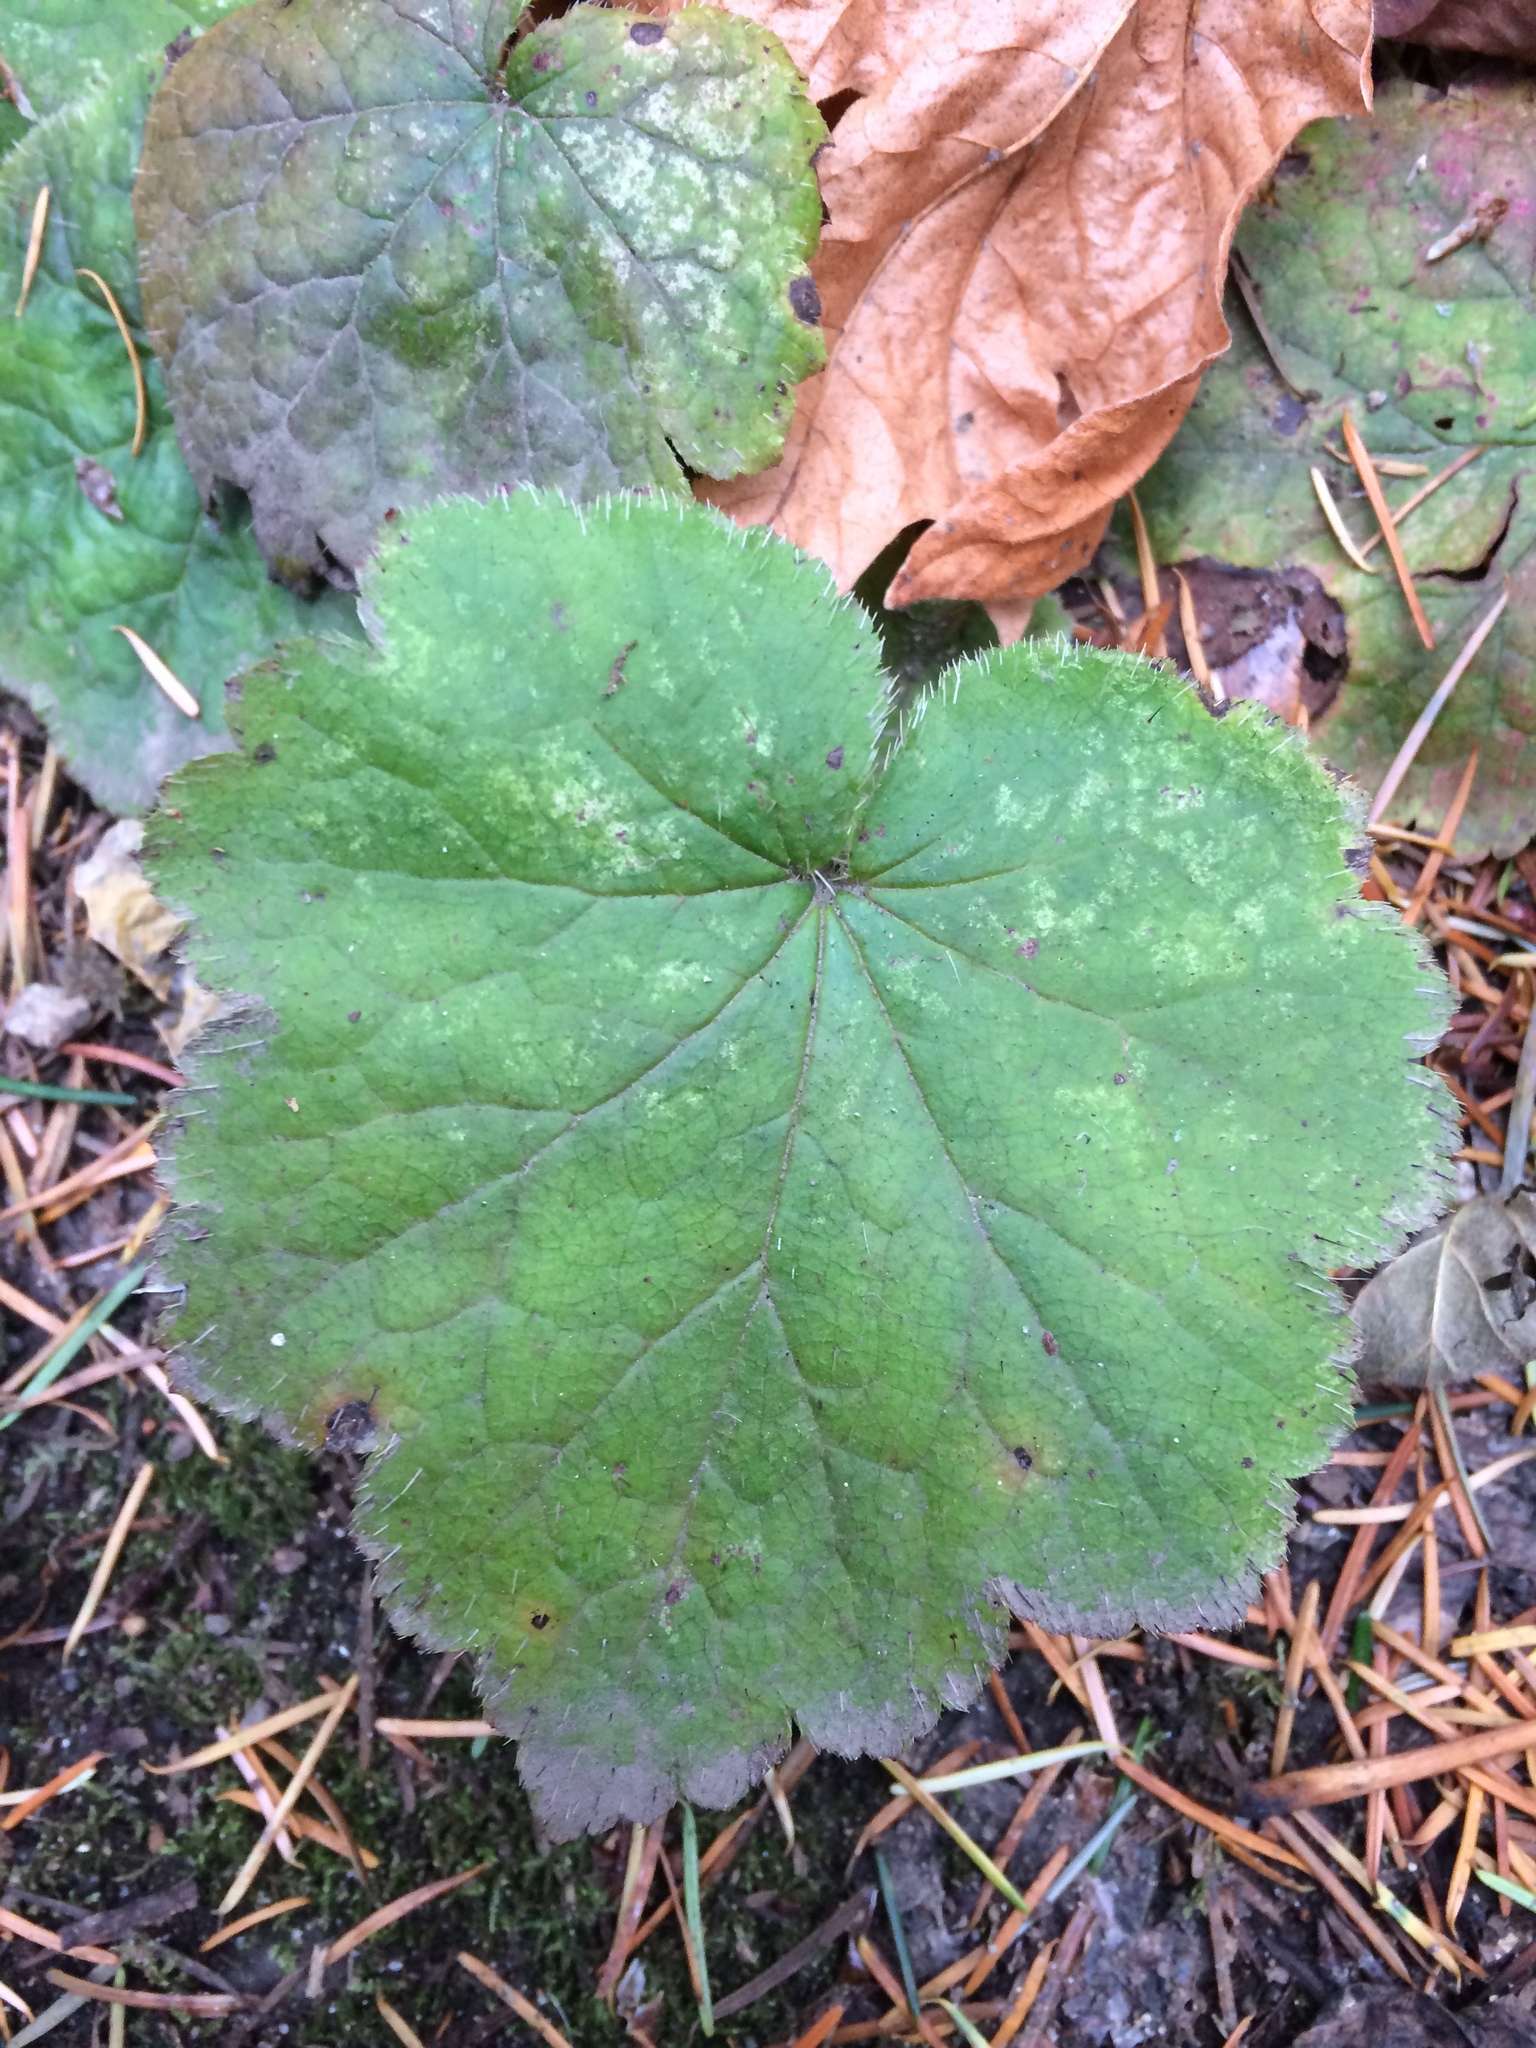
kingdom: Plantae
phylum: Tracheophyta
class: Magnoliopsida
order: Saxifragales
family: Saxifragaceae
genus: Tellima
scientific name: Tellima grandiflora
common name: Fringecups
